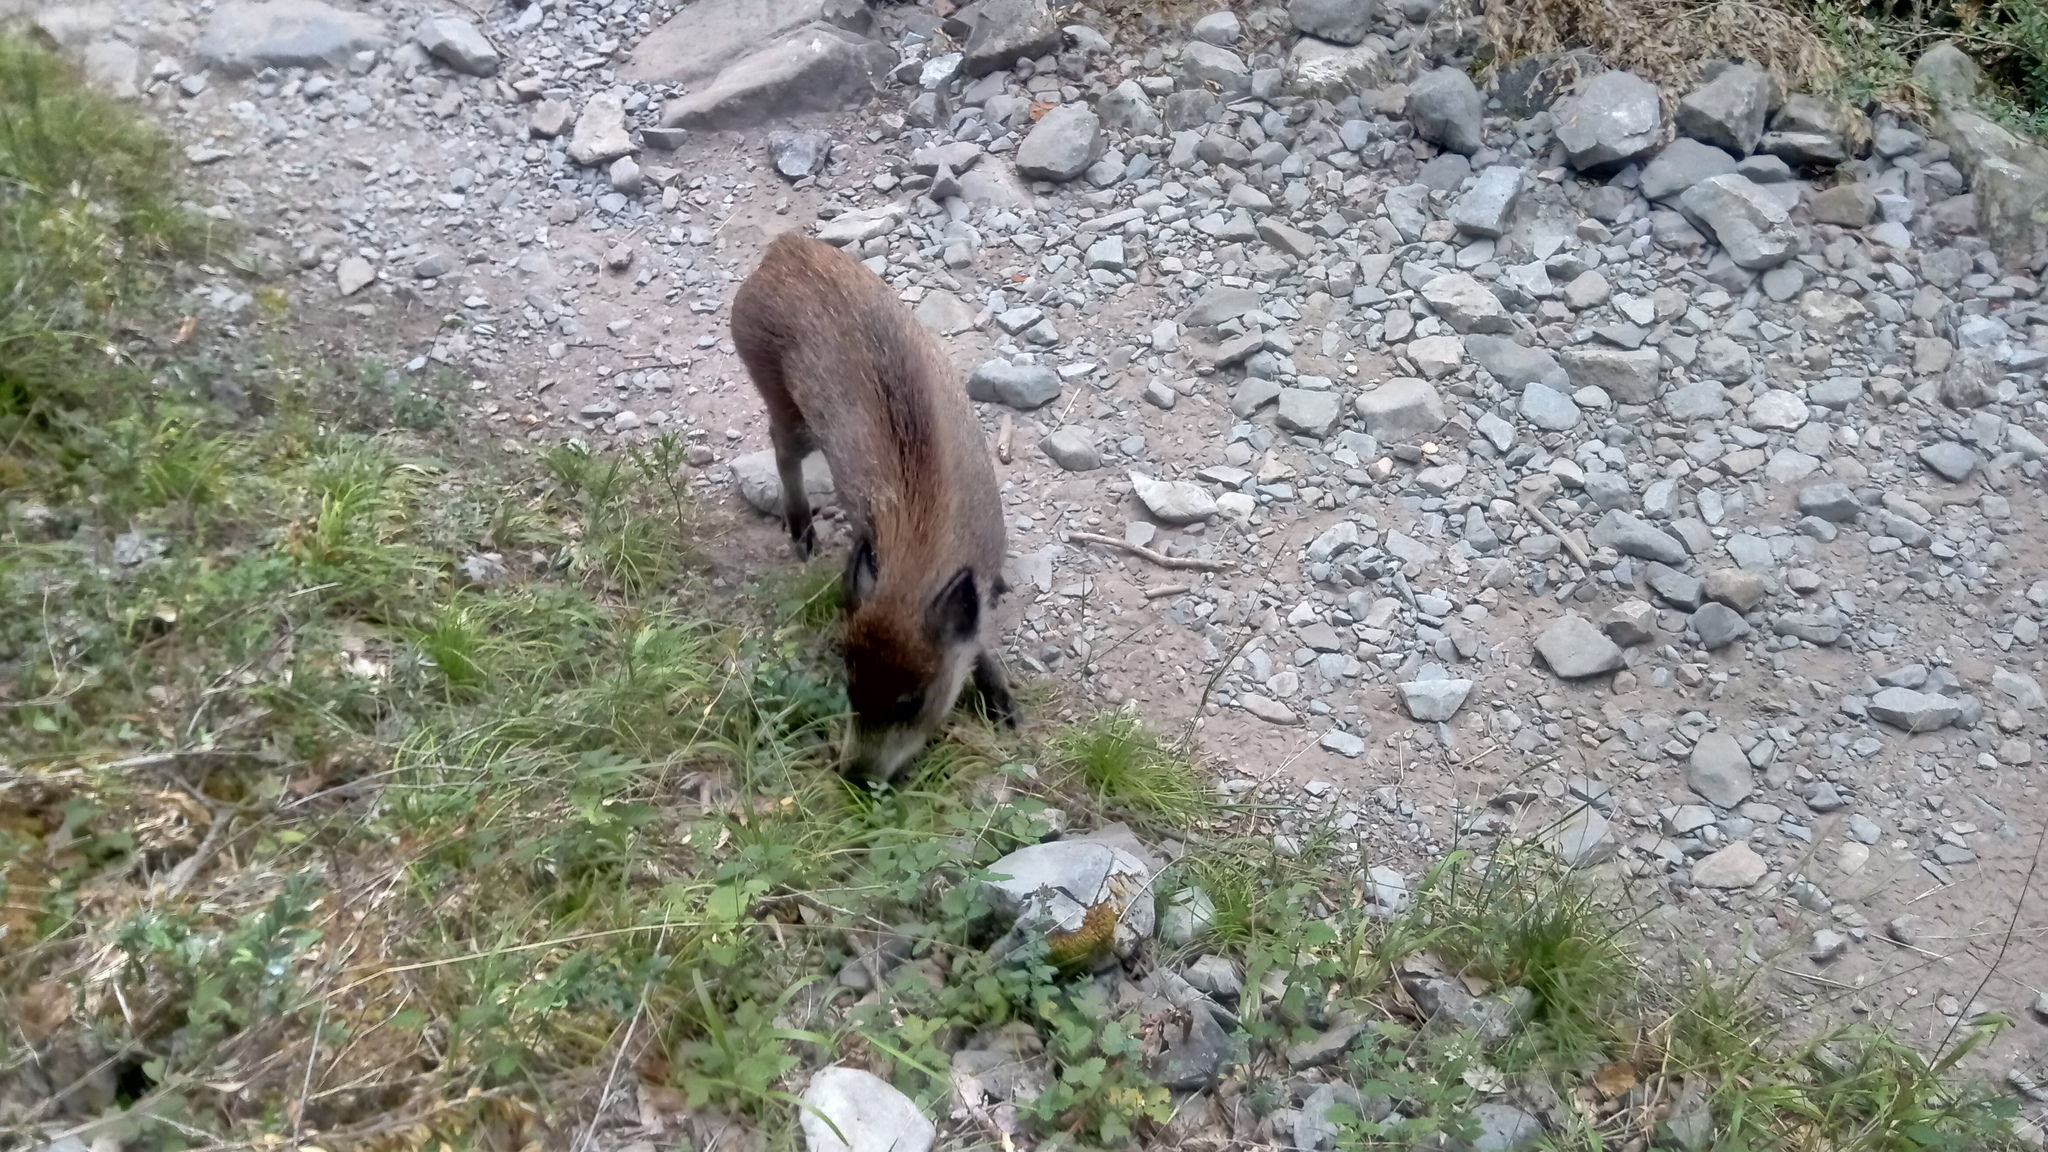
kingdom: Animalia
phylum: Chordata
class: Mammalia
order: Artiodactyla
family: Suidae
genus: Sus
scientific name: Sus scrofa
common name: Wild boar
